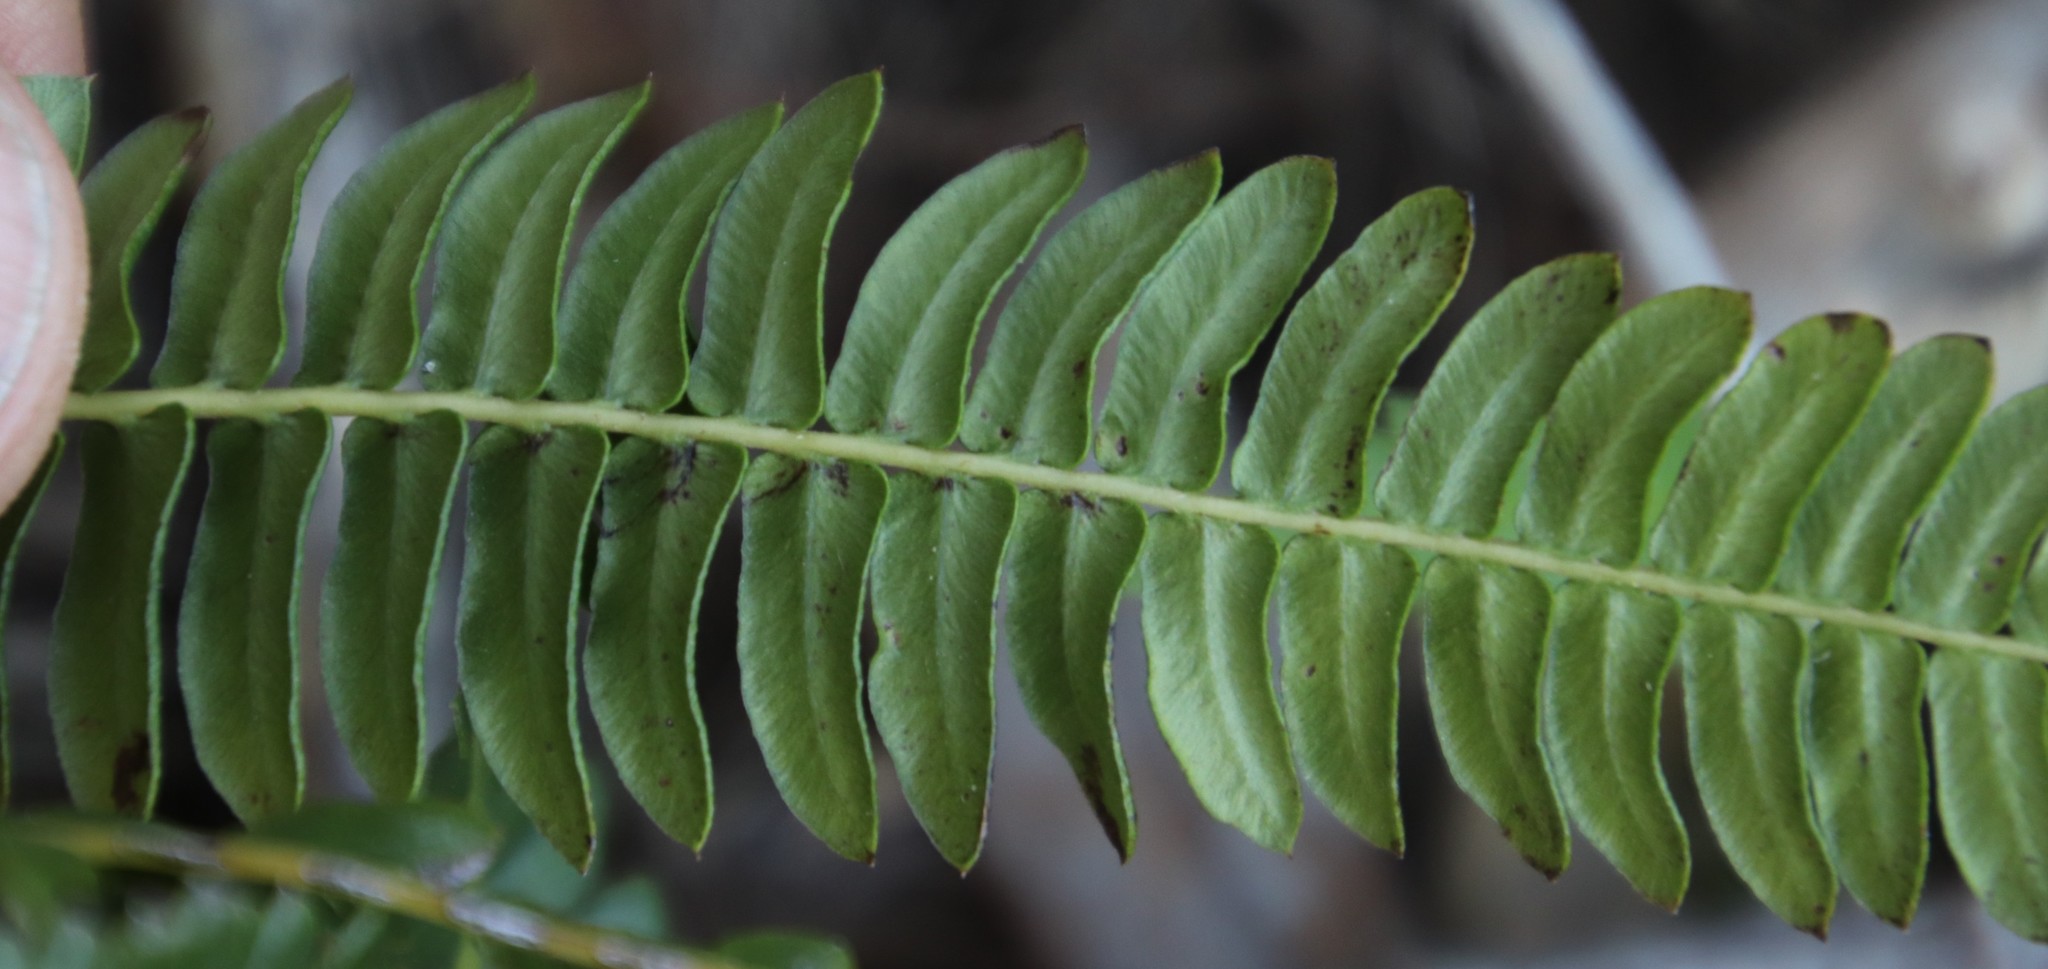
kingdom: Plantae
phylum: Tracheophyta
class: Polypodiopsida
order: Polypodiales
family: Blechnaceae
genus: Blechnum
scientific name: Blechnum australe
